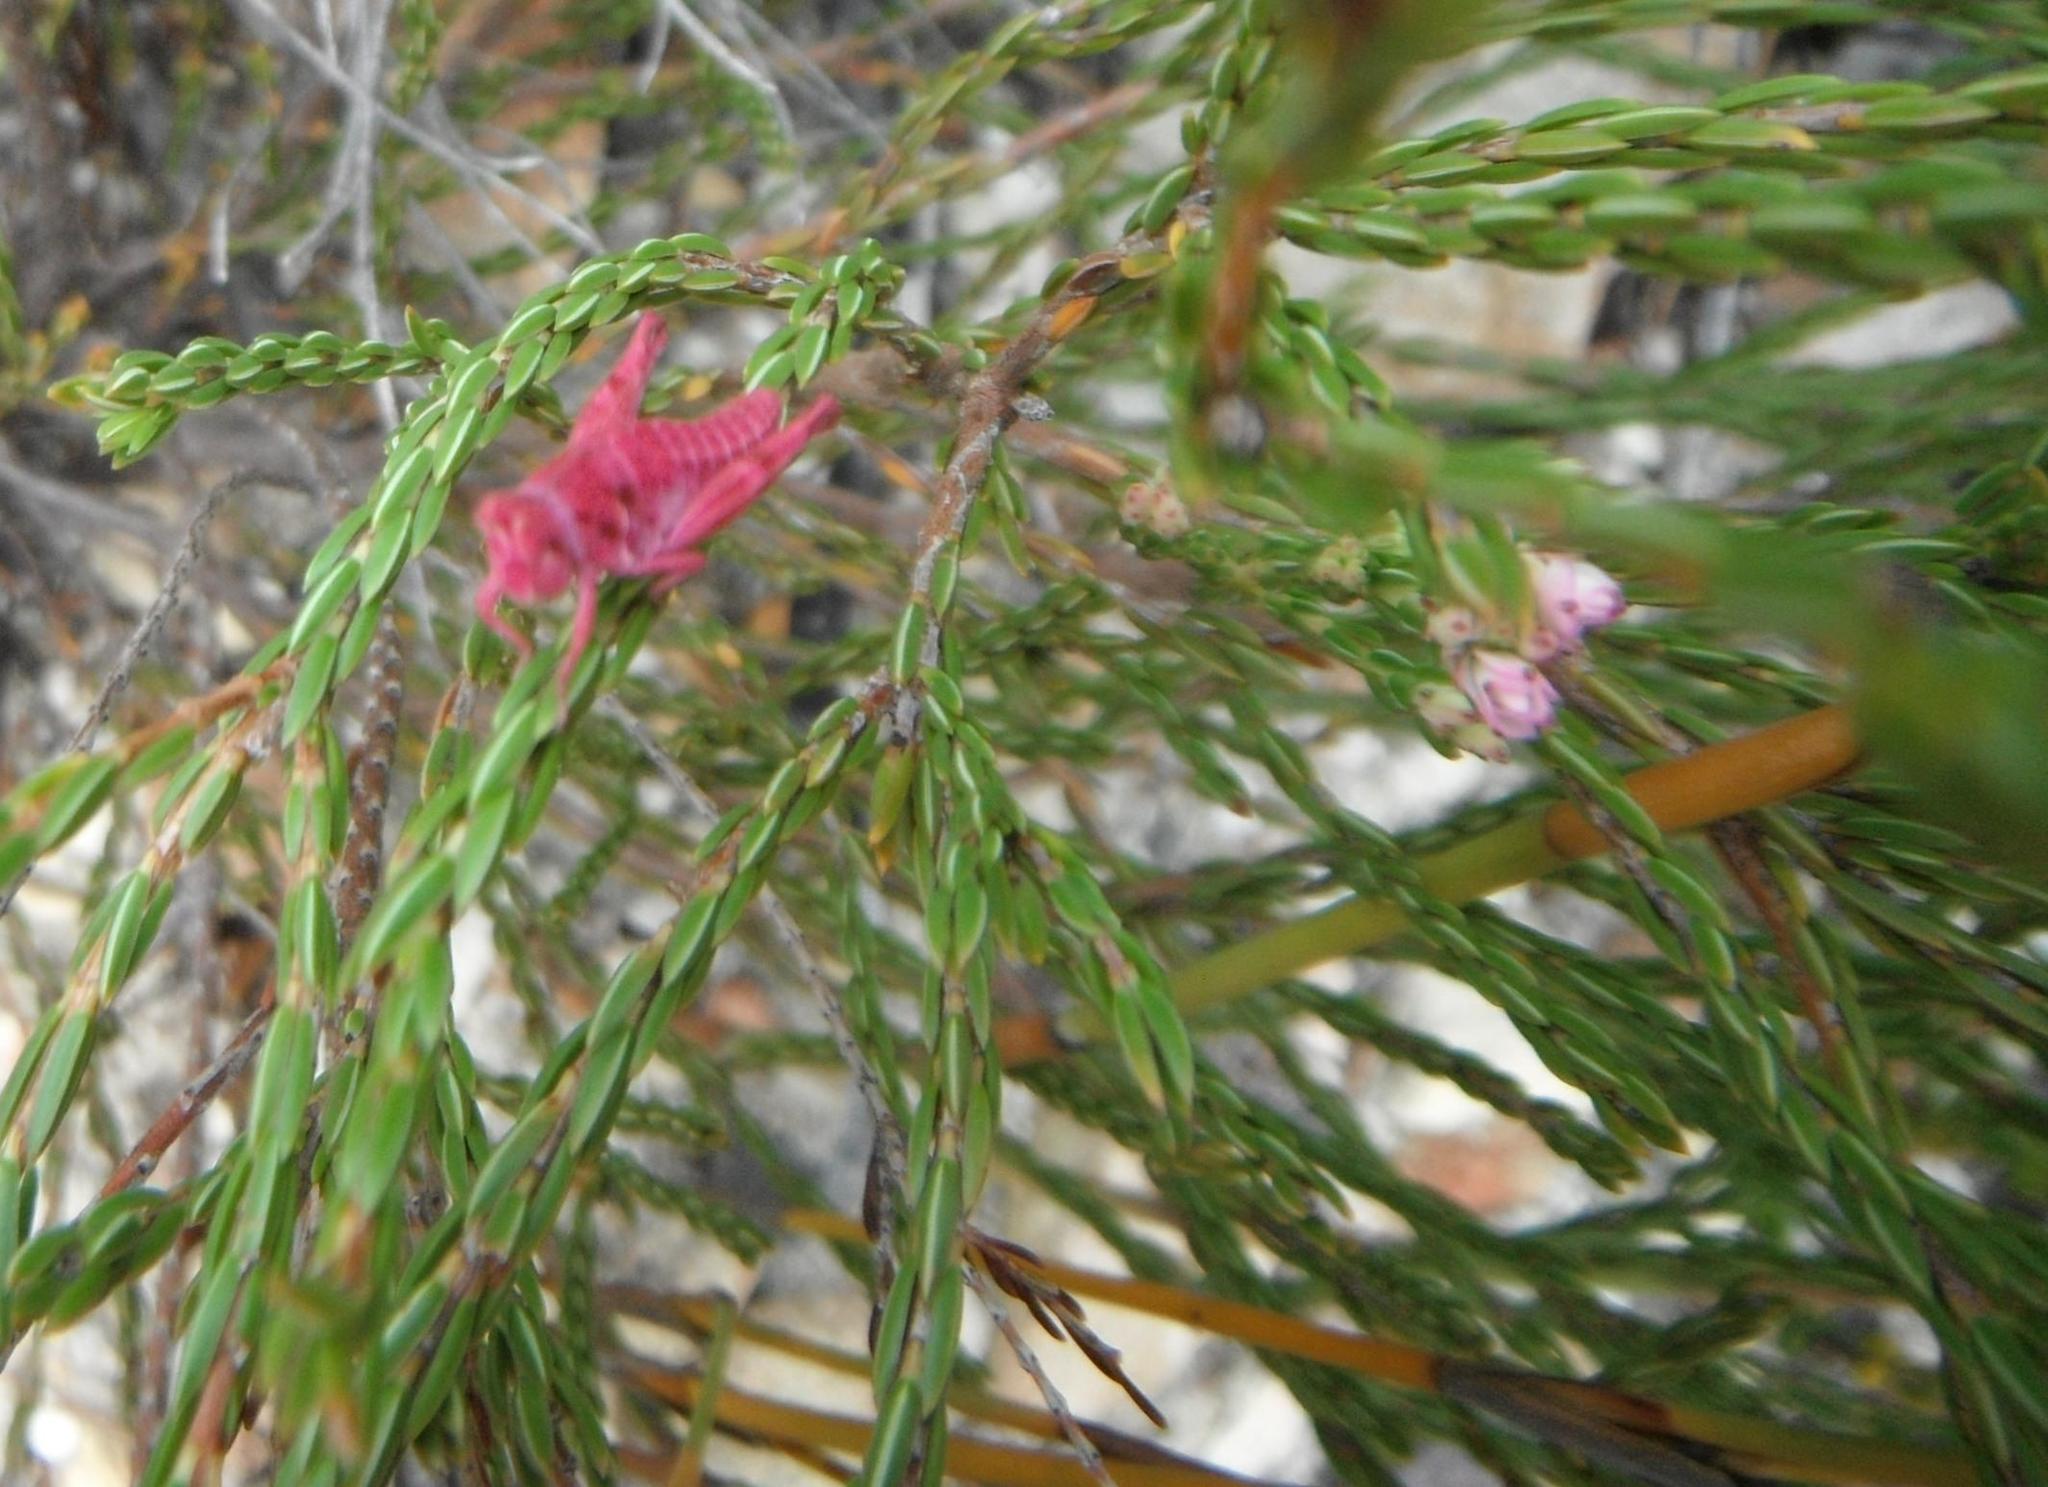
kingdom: Animalia
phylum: Arthropoda
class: Insecta
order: Orthoptera
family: Thericleidae
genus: Thericlesiella
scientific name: Thericlesiella meridionalis
